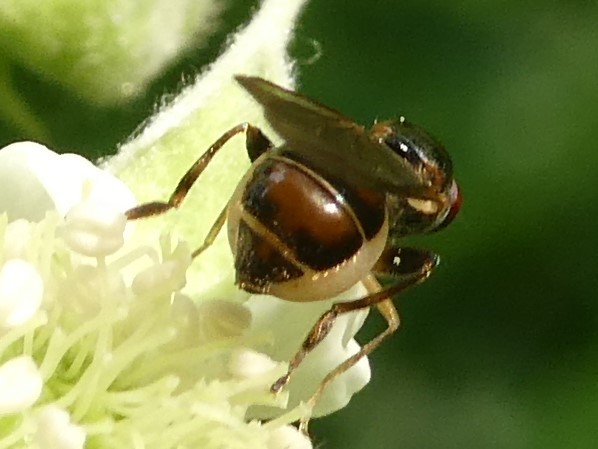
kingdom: Animalia
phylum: Arthropoda
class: Insecta
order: Diptera
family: Syrphidae
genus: Sphegina
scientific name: Sphegina
